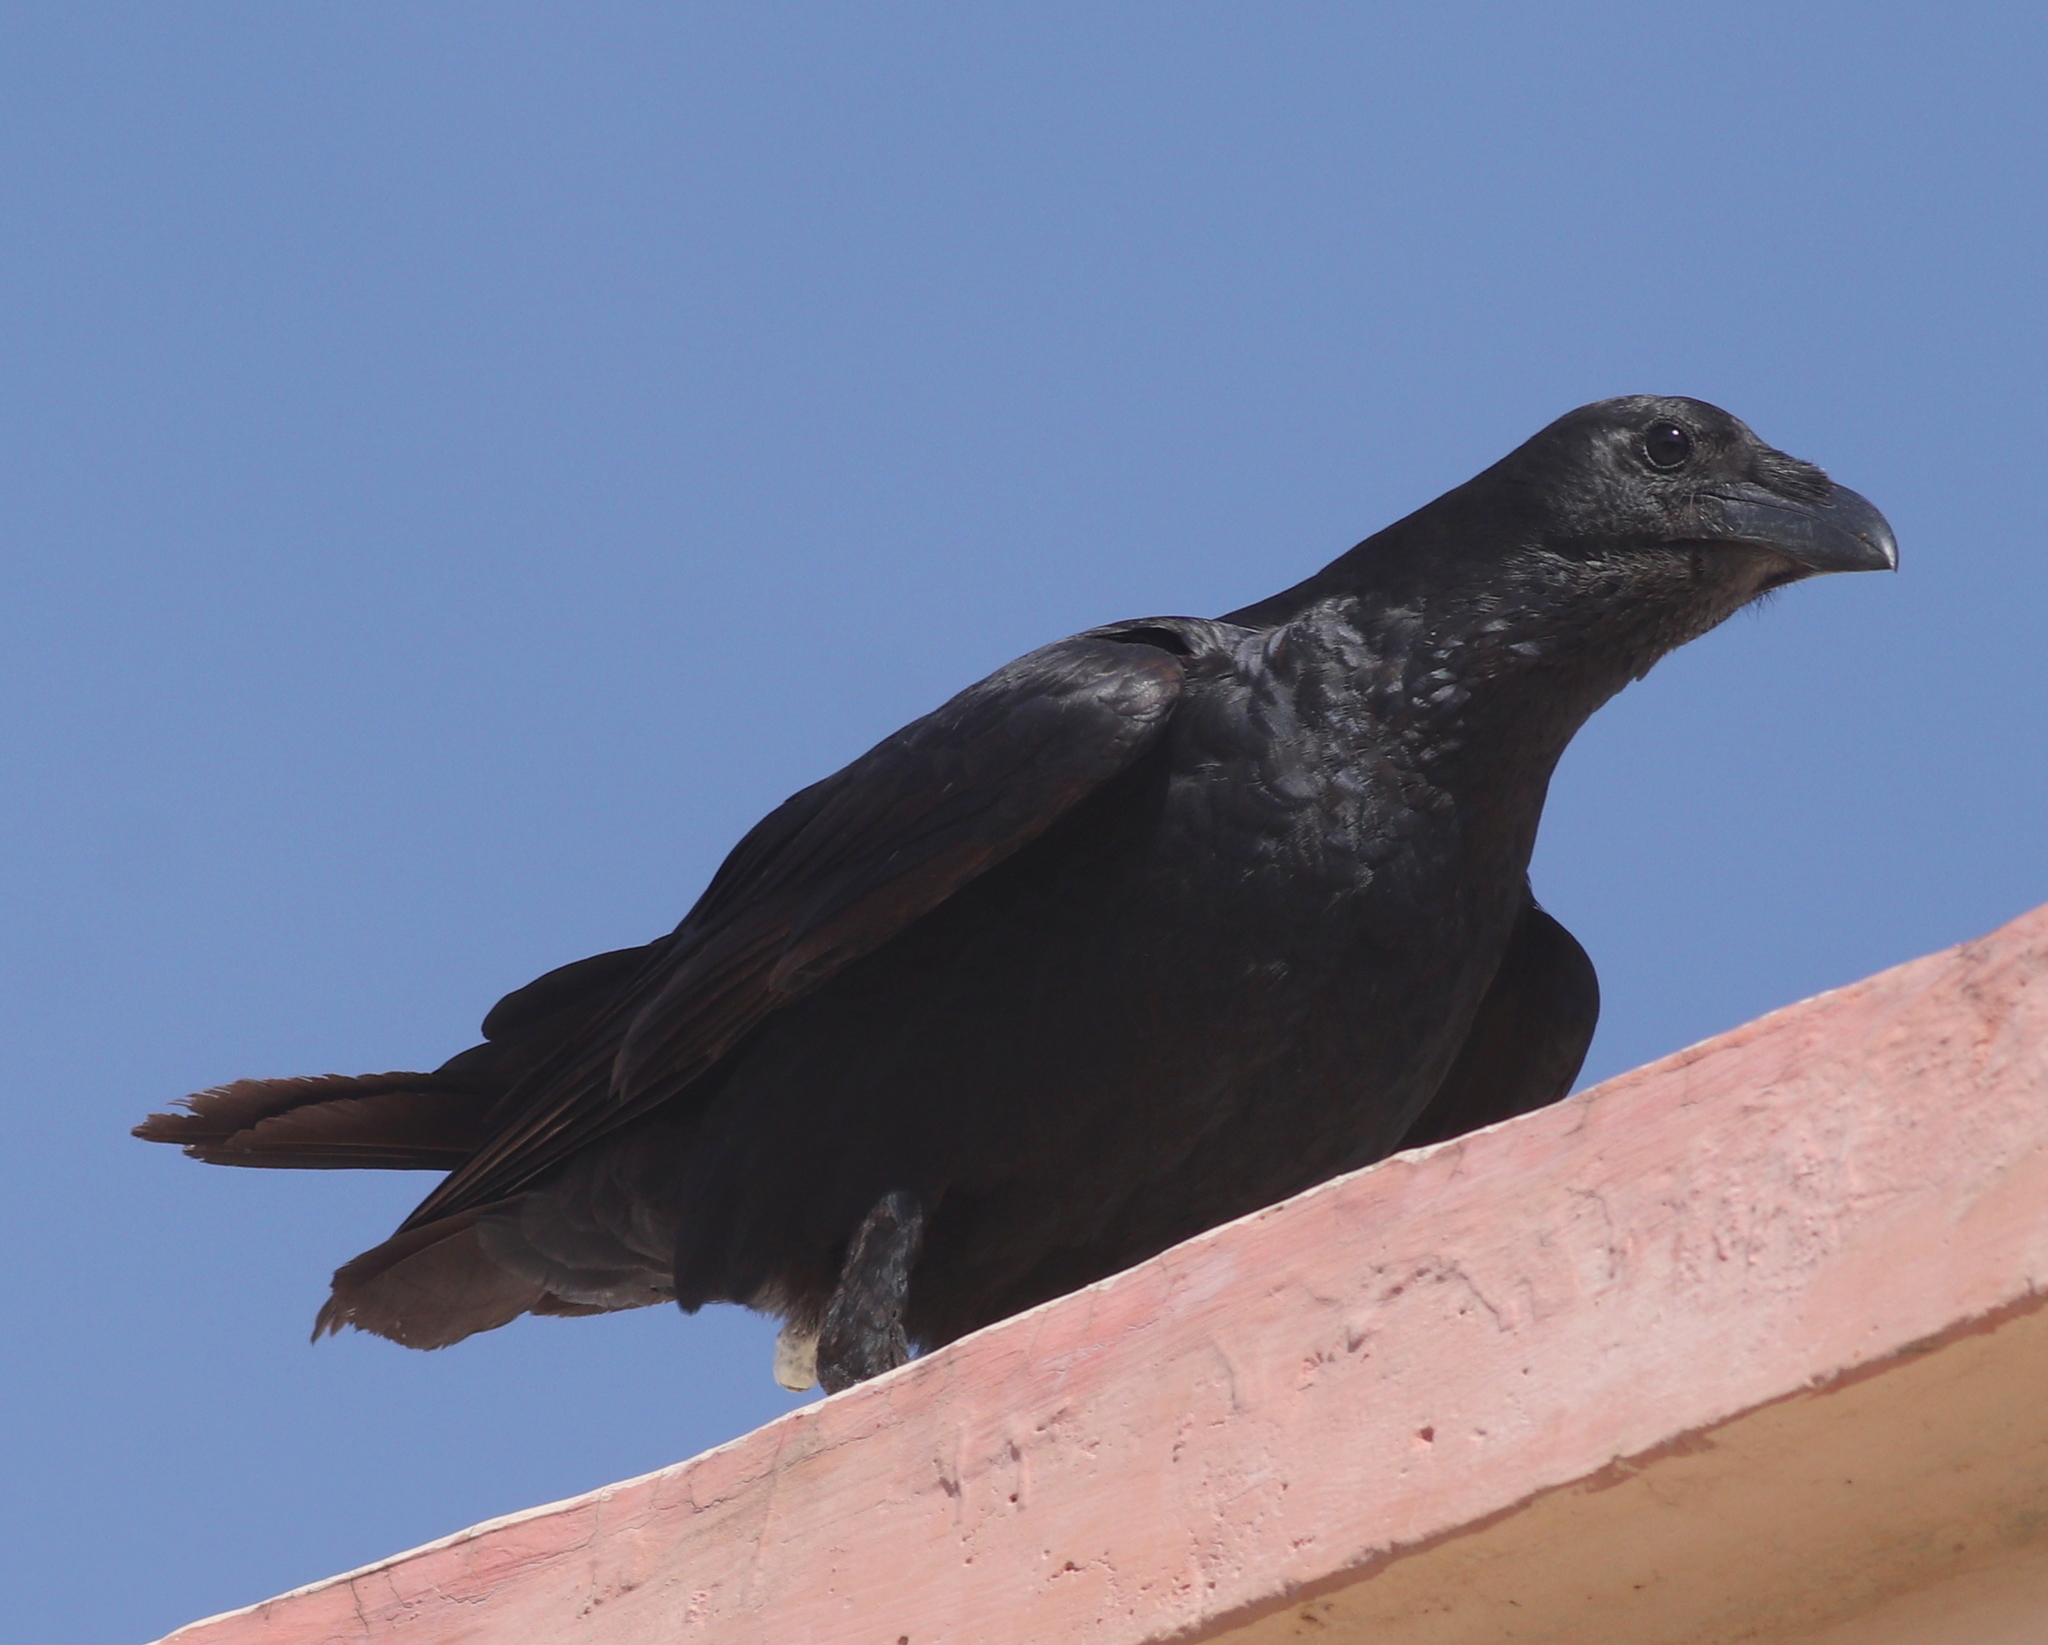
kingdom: Animalia
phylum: Chordata
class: Aves
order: Passeriformes
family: Corvidae
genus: Corvus
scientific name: Corvus rhipidurus
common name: Fan-tailed raven
